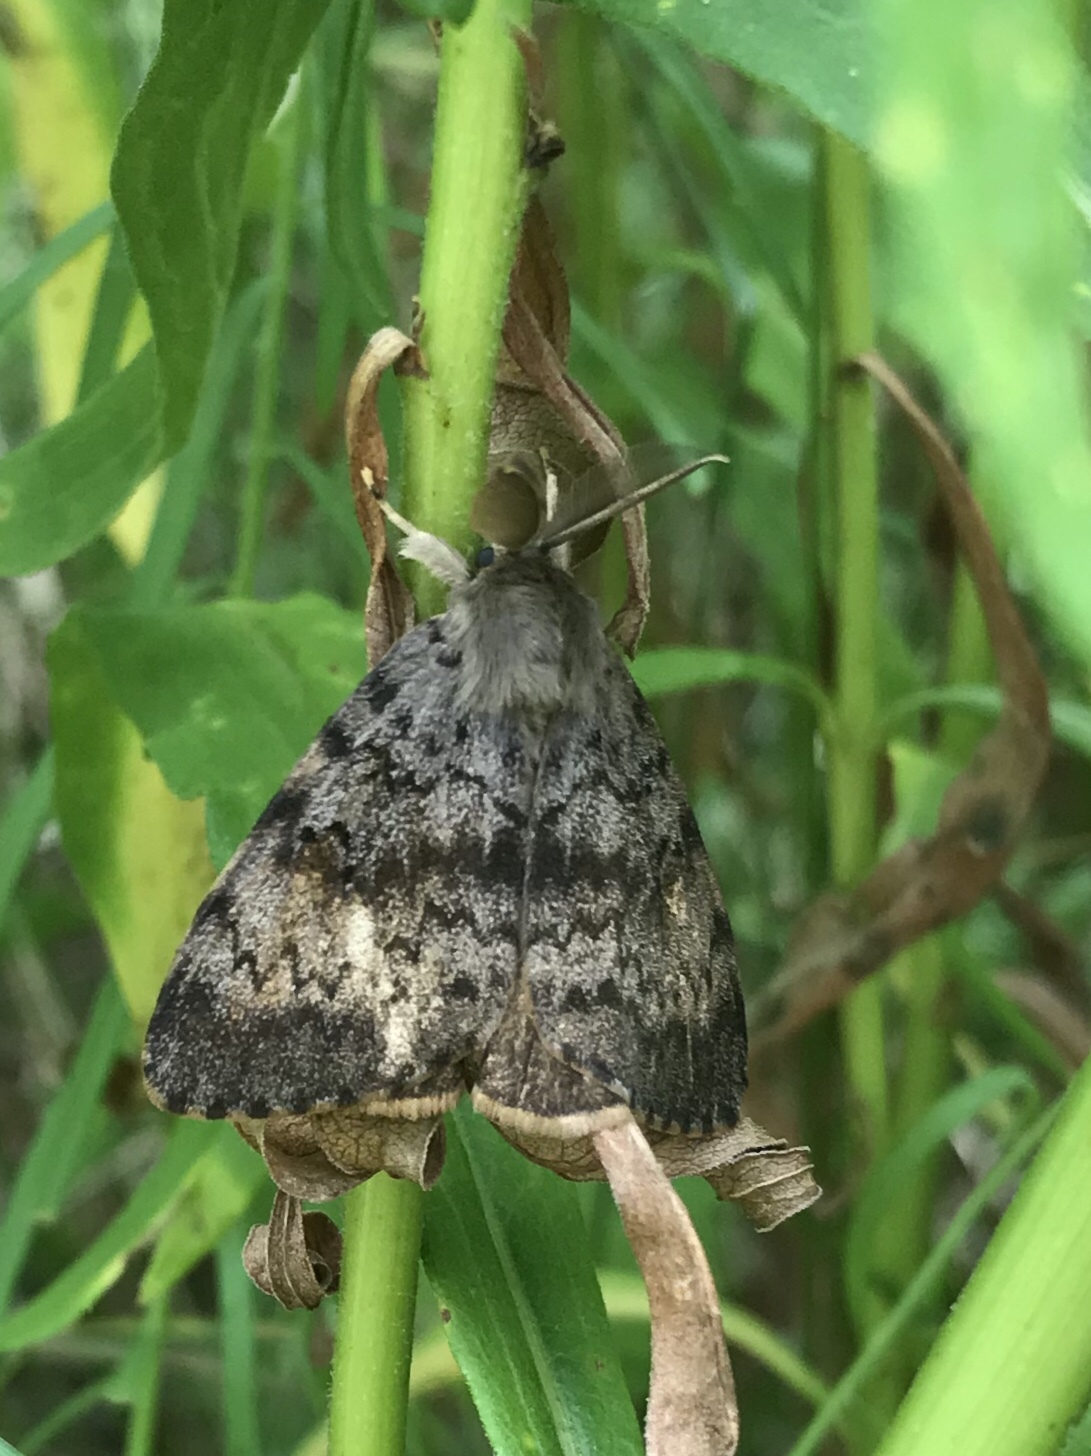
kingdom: Animalia
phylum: Arthropoda
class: Insecta
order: Lepidoptera
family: Erebidae
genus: Lymantria
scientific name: Lymantria dispar
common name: Gypsy moth
